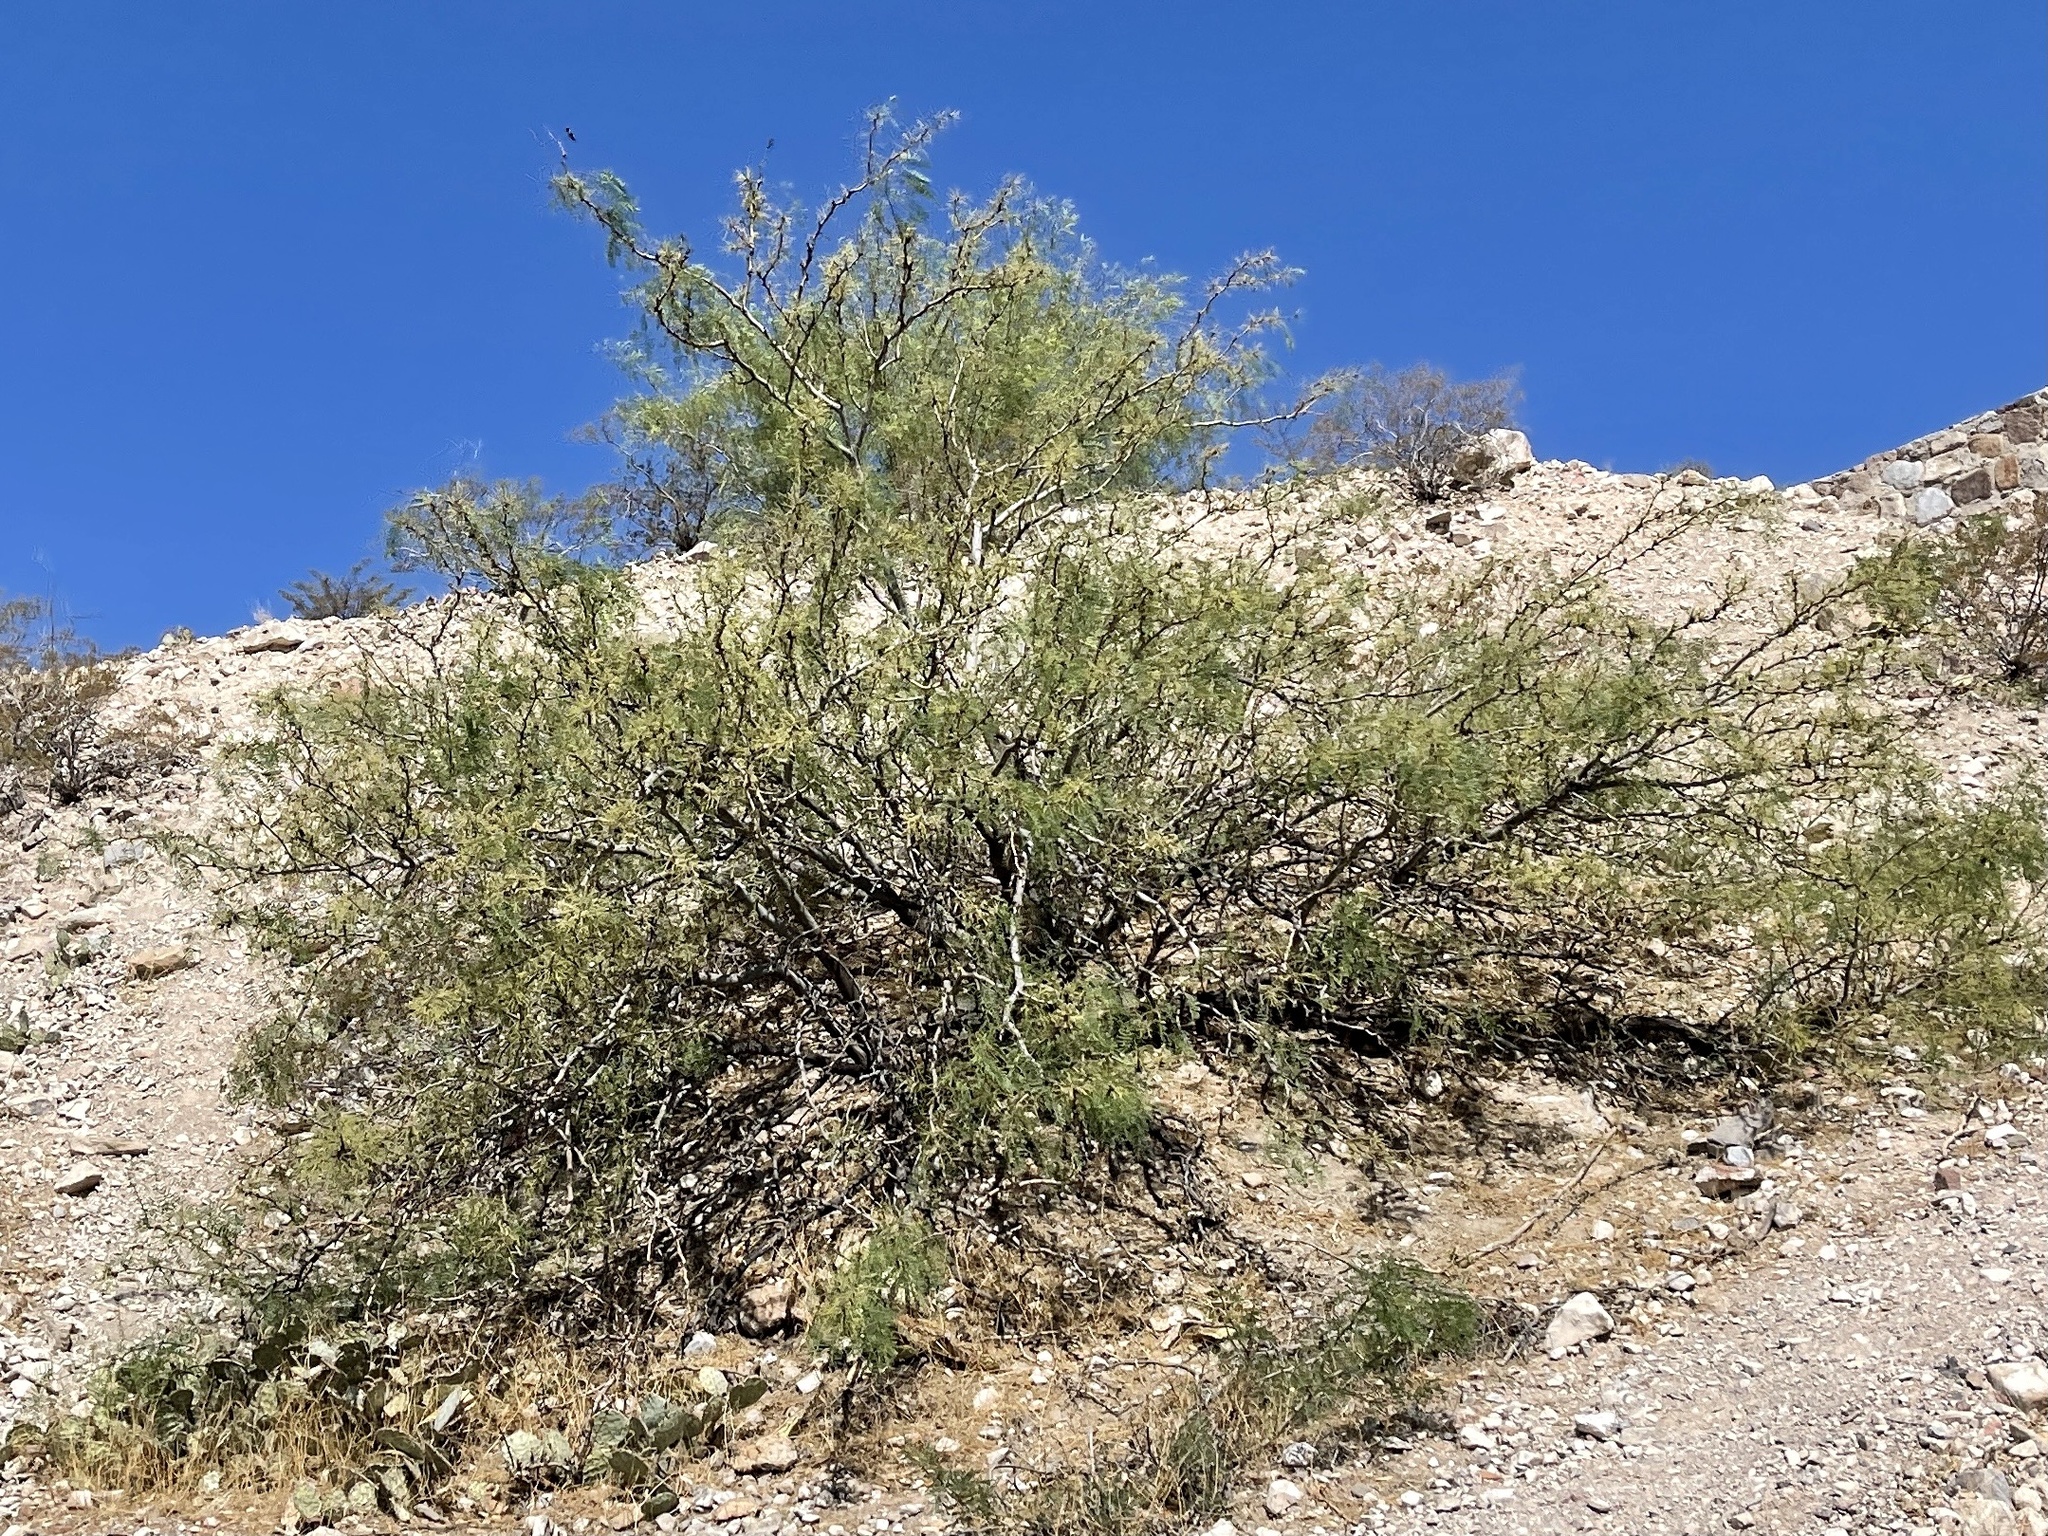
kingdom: Plantae
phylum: Tracheophyta
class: Magnoliopsida
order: Fabales
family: Fabaceae
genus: Prosopis
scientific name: Prosopis glandulosa
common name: Honey mesquite
